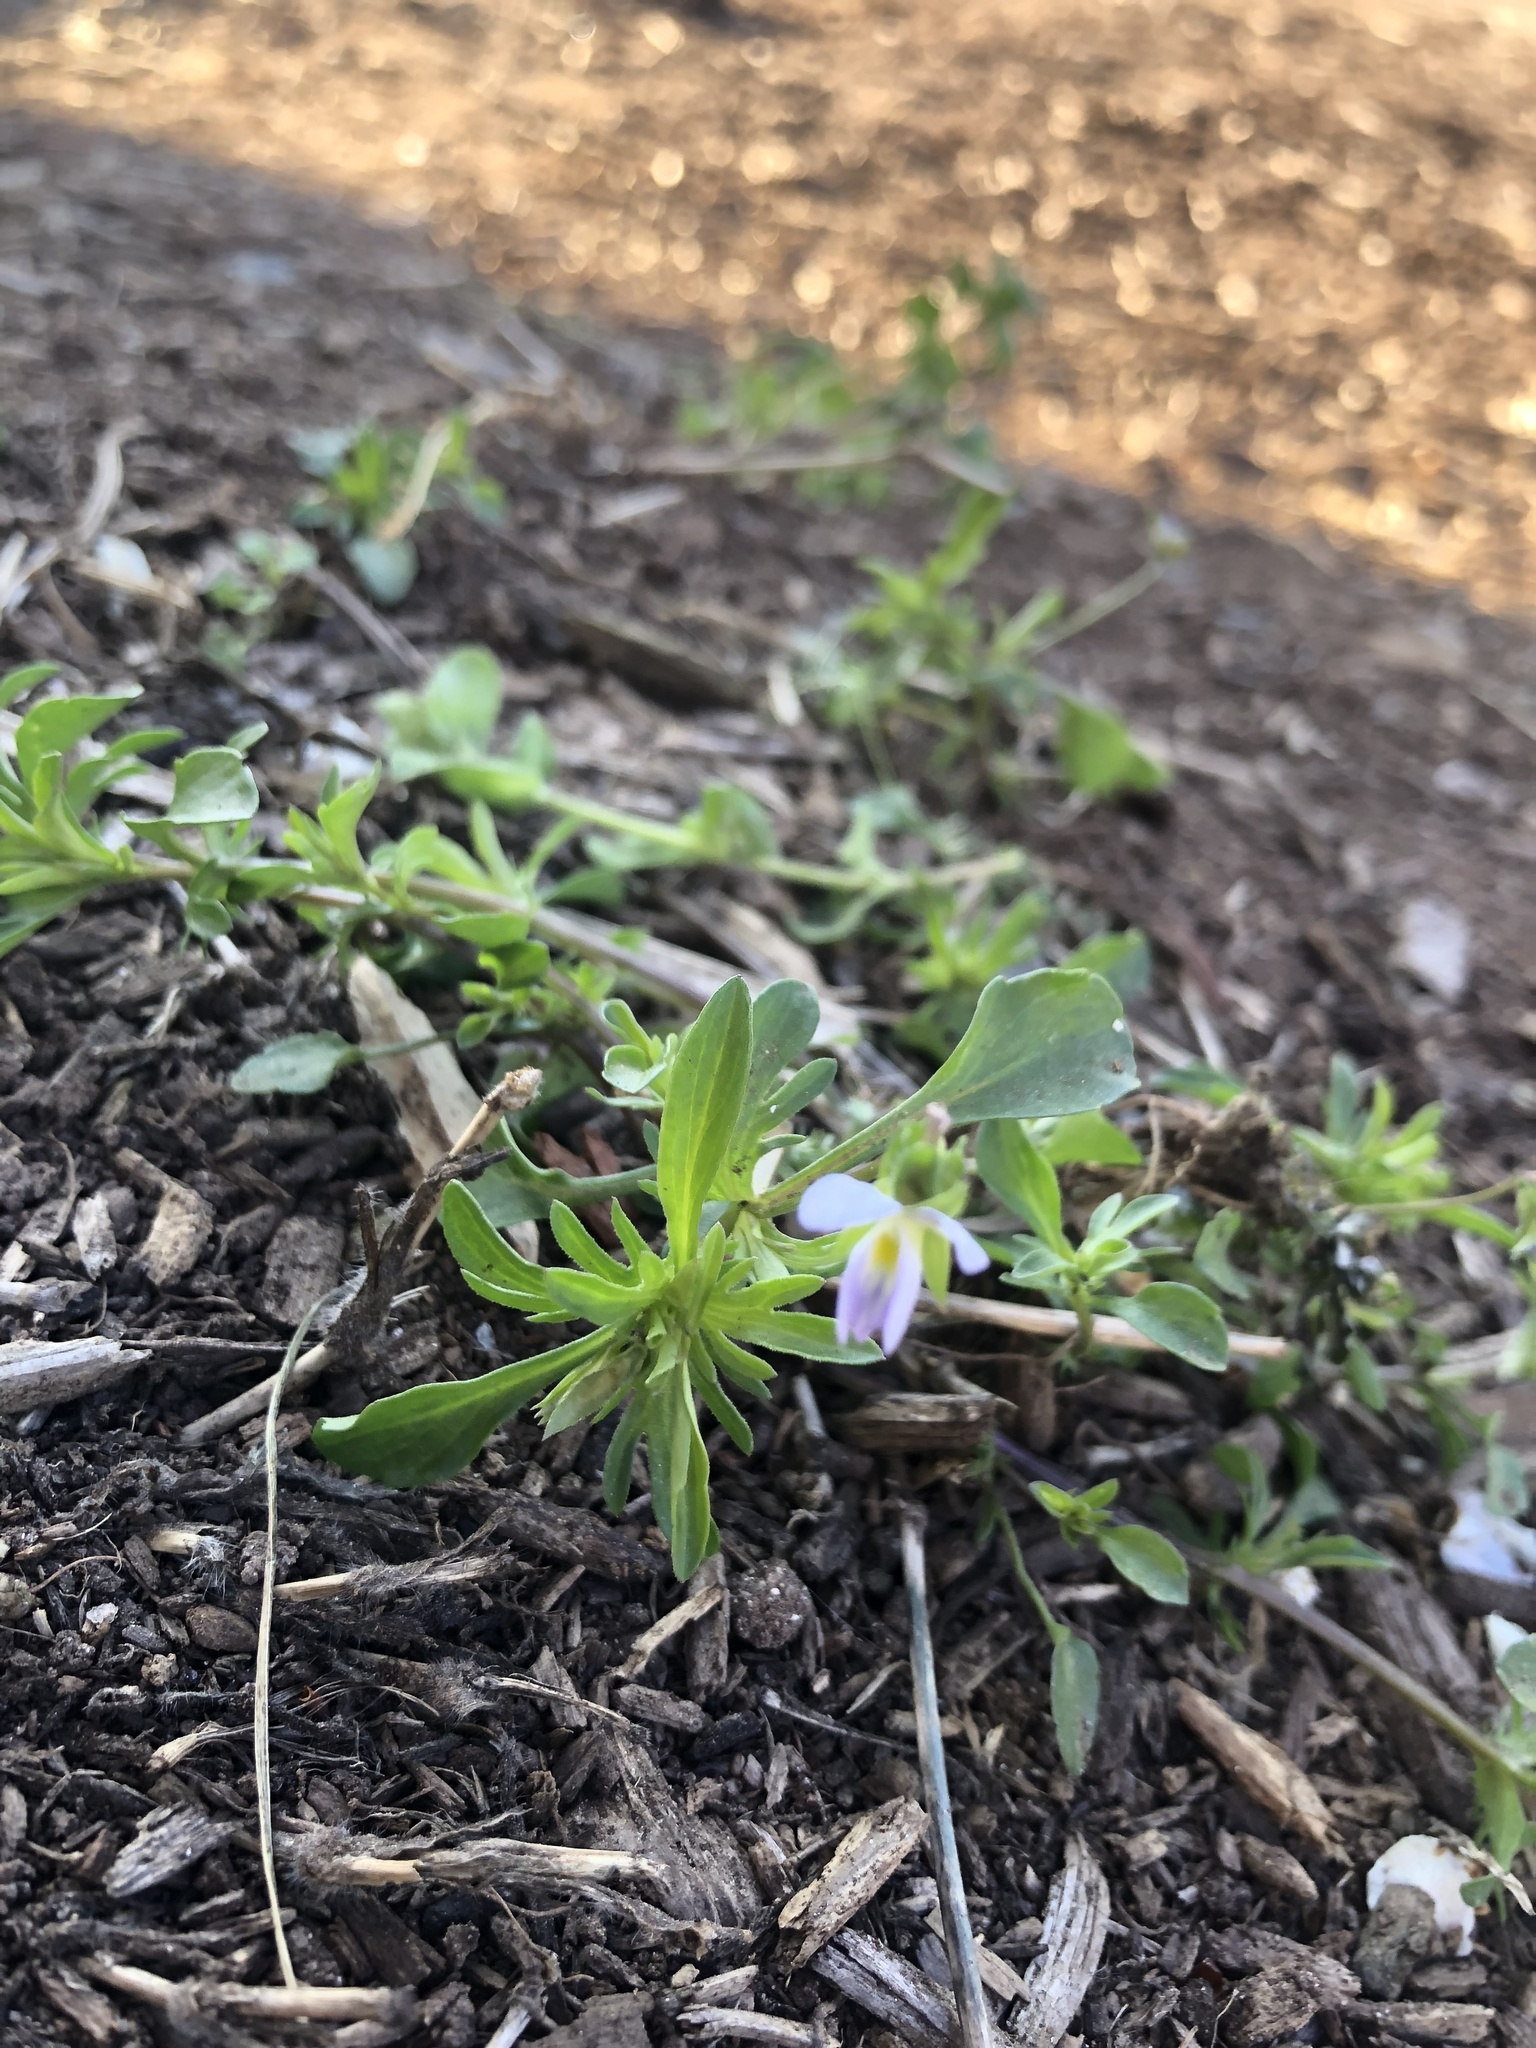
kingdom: Plantae
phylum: Tracheophyta
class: Magnoliopsida
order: Malpighiales
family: Violaceae
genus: Viola
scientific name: Viola rafinesquei
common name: American field pansy
